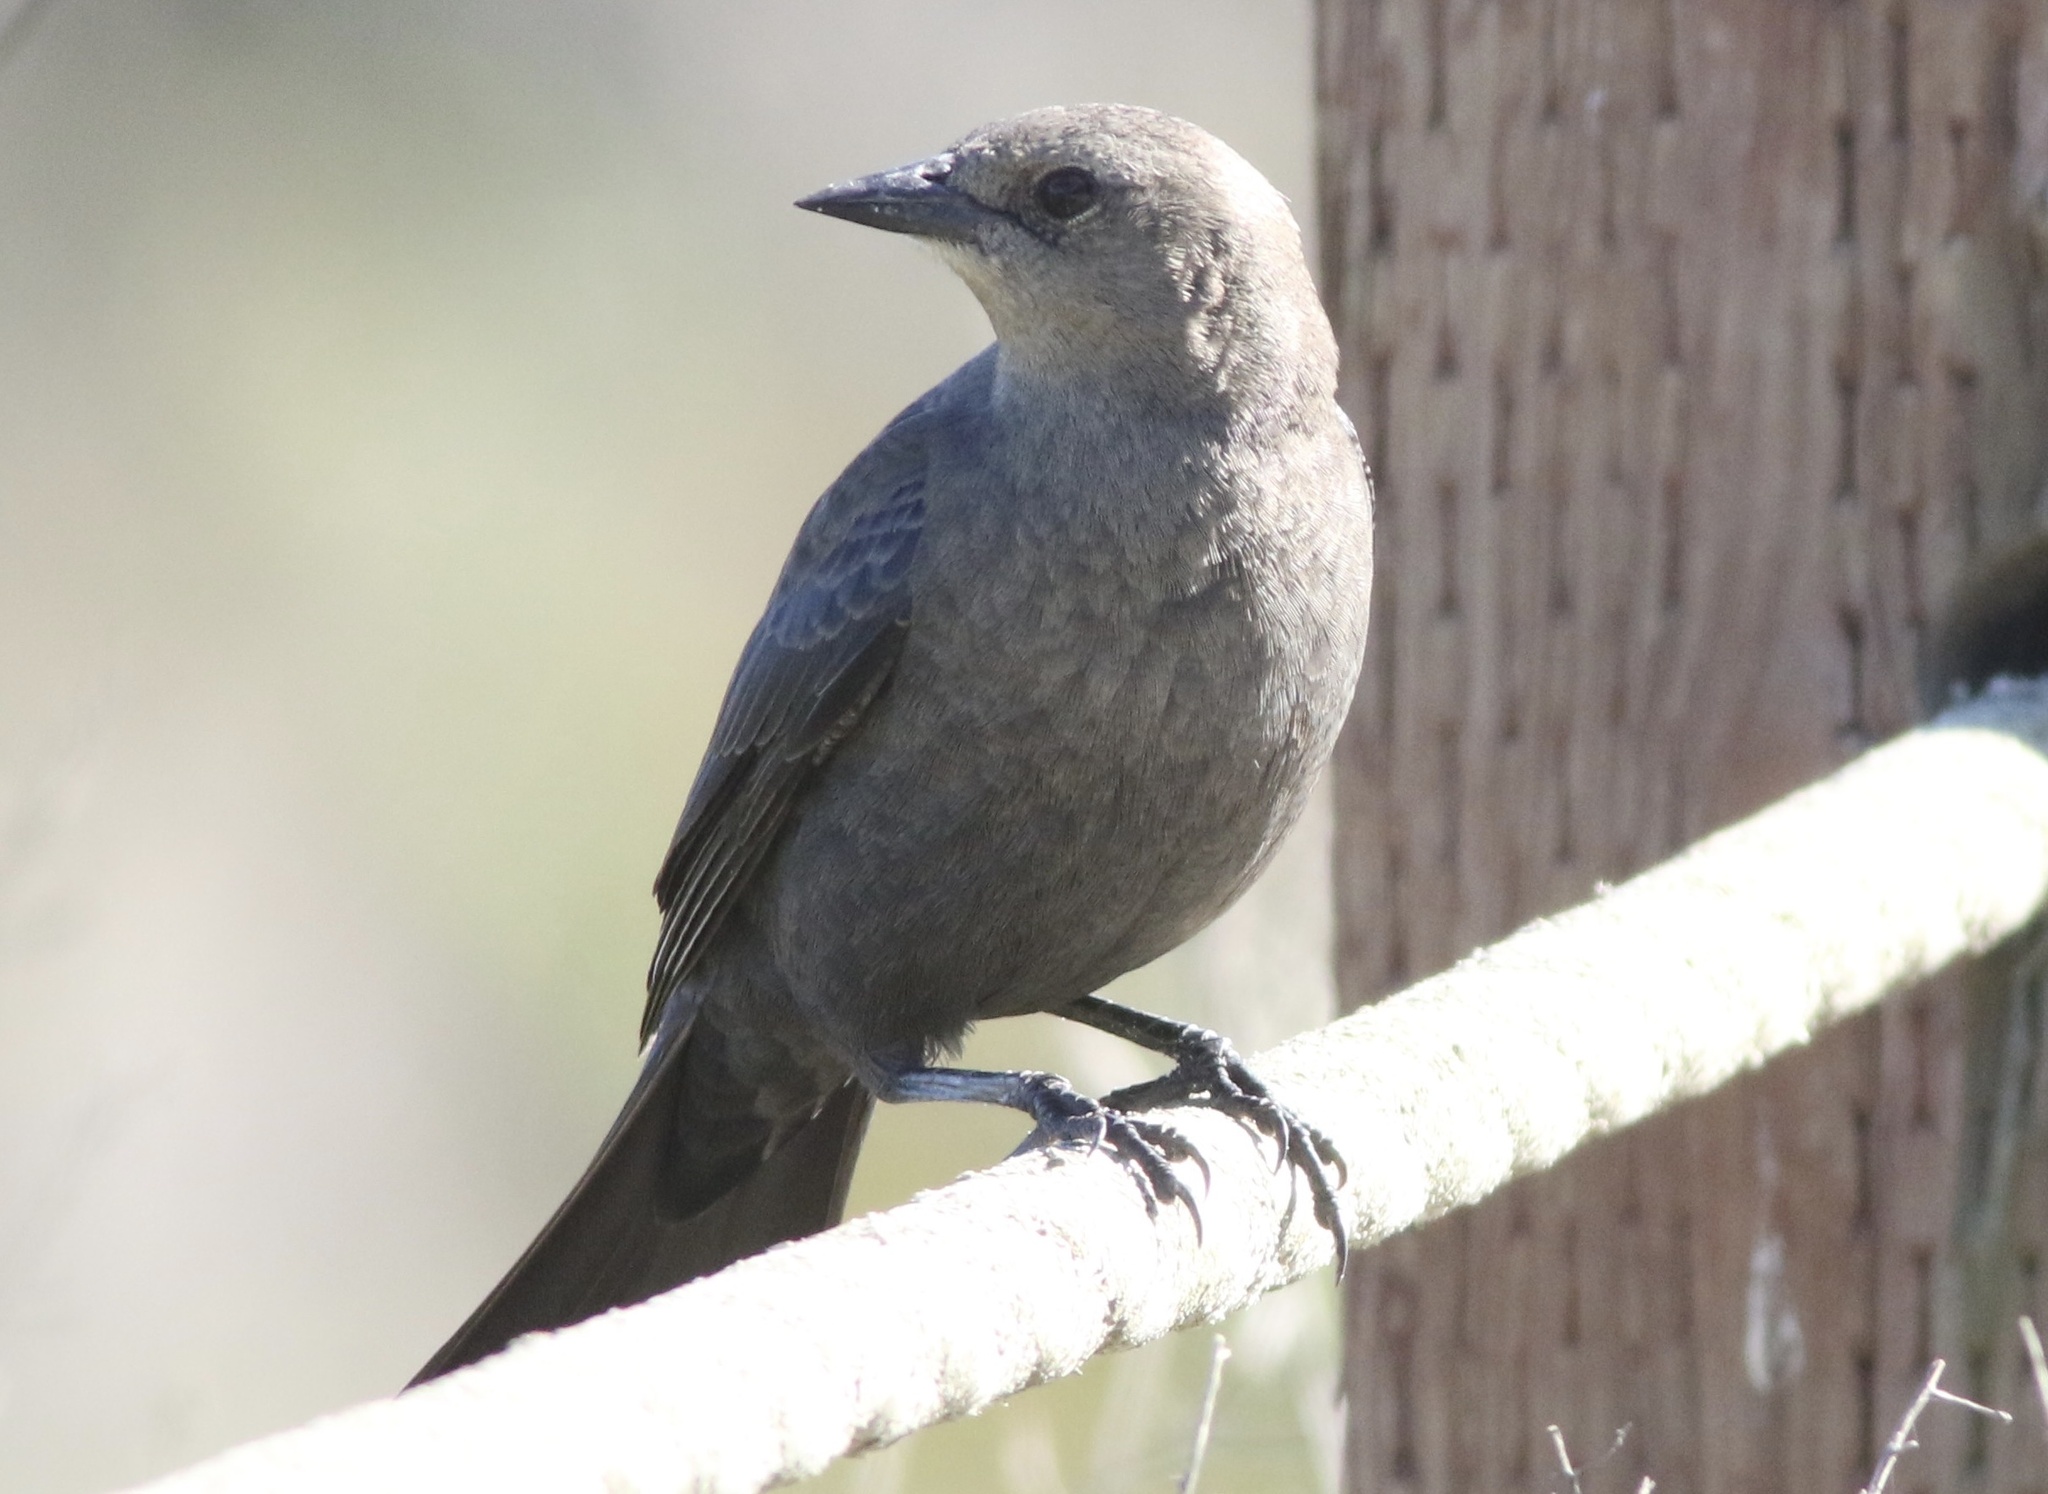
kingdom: Animalia
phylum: Chordata
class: Aves
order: Passeriformes
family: Icteridae
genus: Euphagus
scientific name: Euphagus cyanocephalus
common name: Brewer's blackbird
